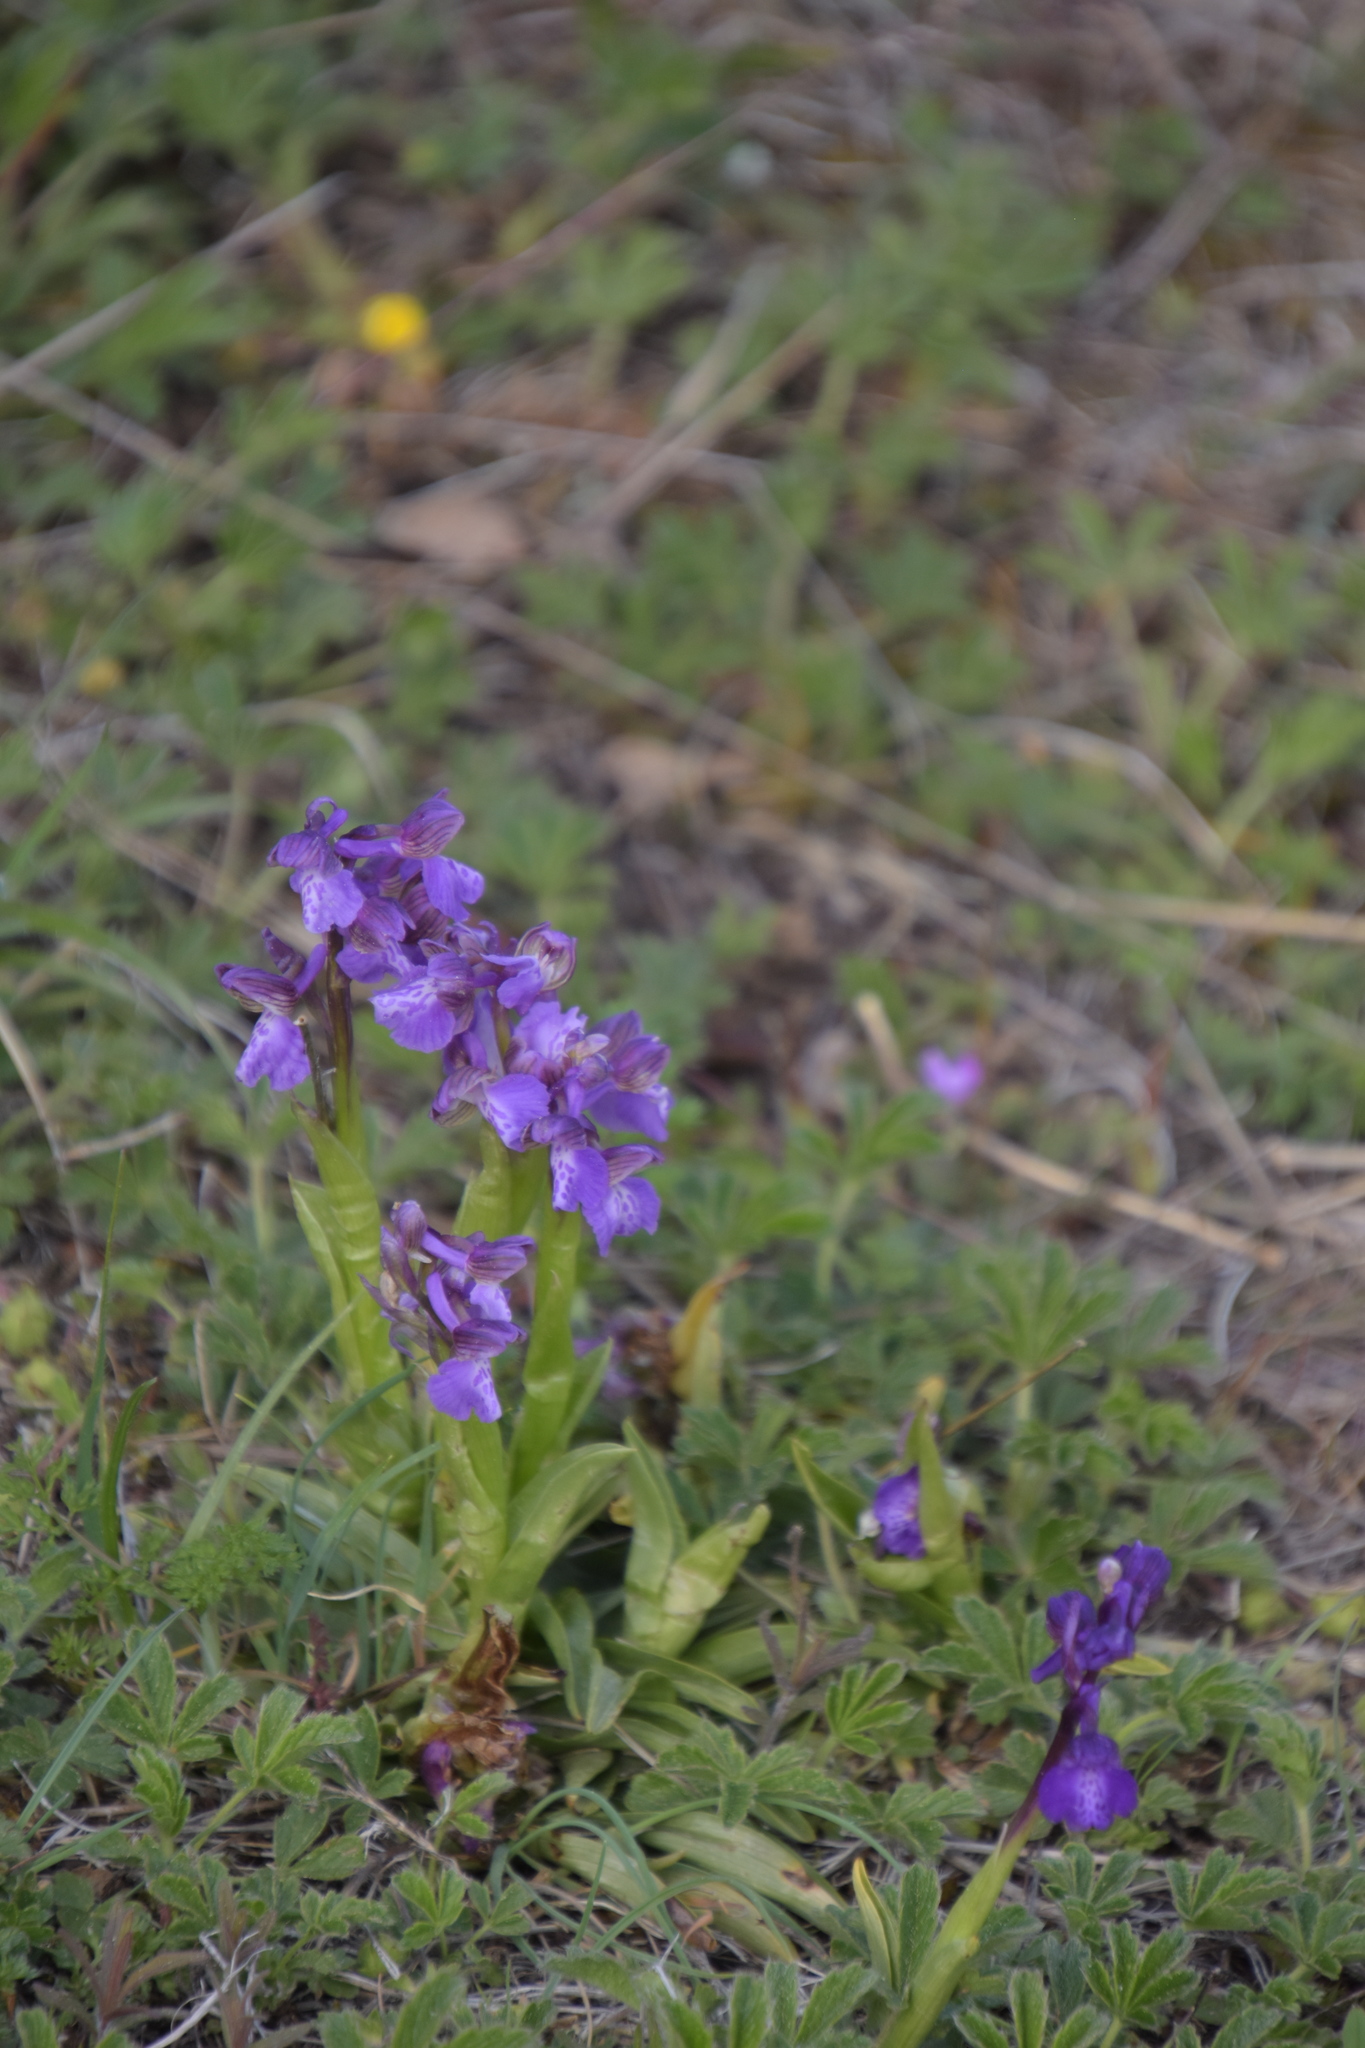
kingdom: Plantae
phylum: Tracheophyta
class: Liliopsida
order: Asparagales
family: Orchidaceae
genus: Anacamptis
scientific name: Anacamptis morio
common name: Green-winged orchid
